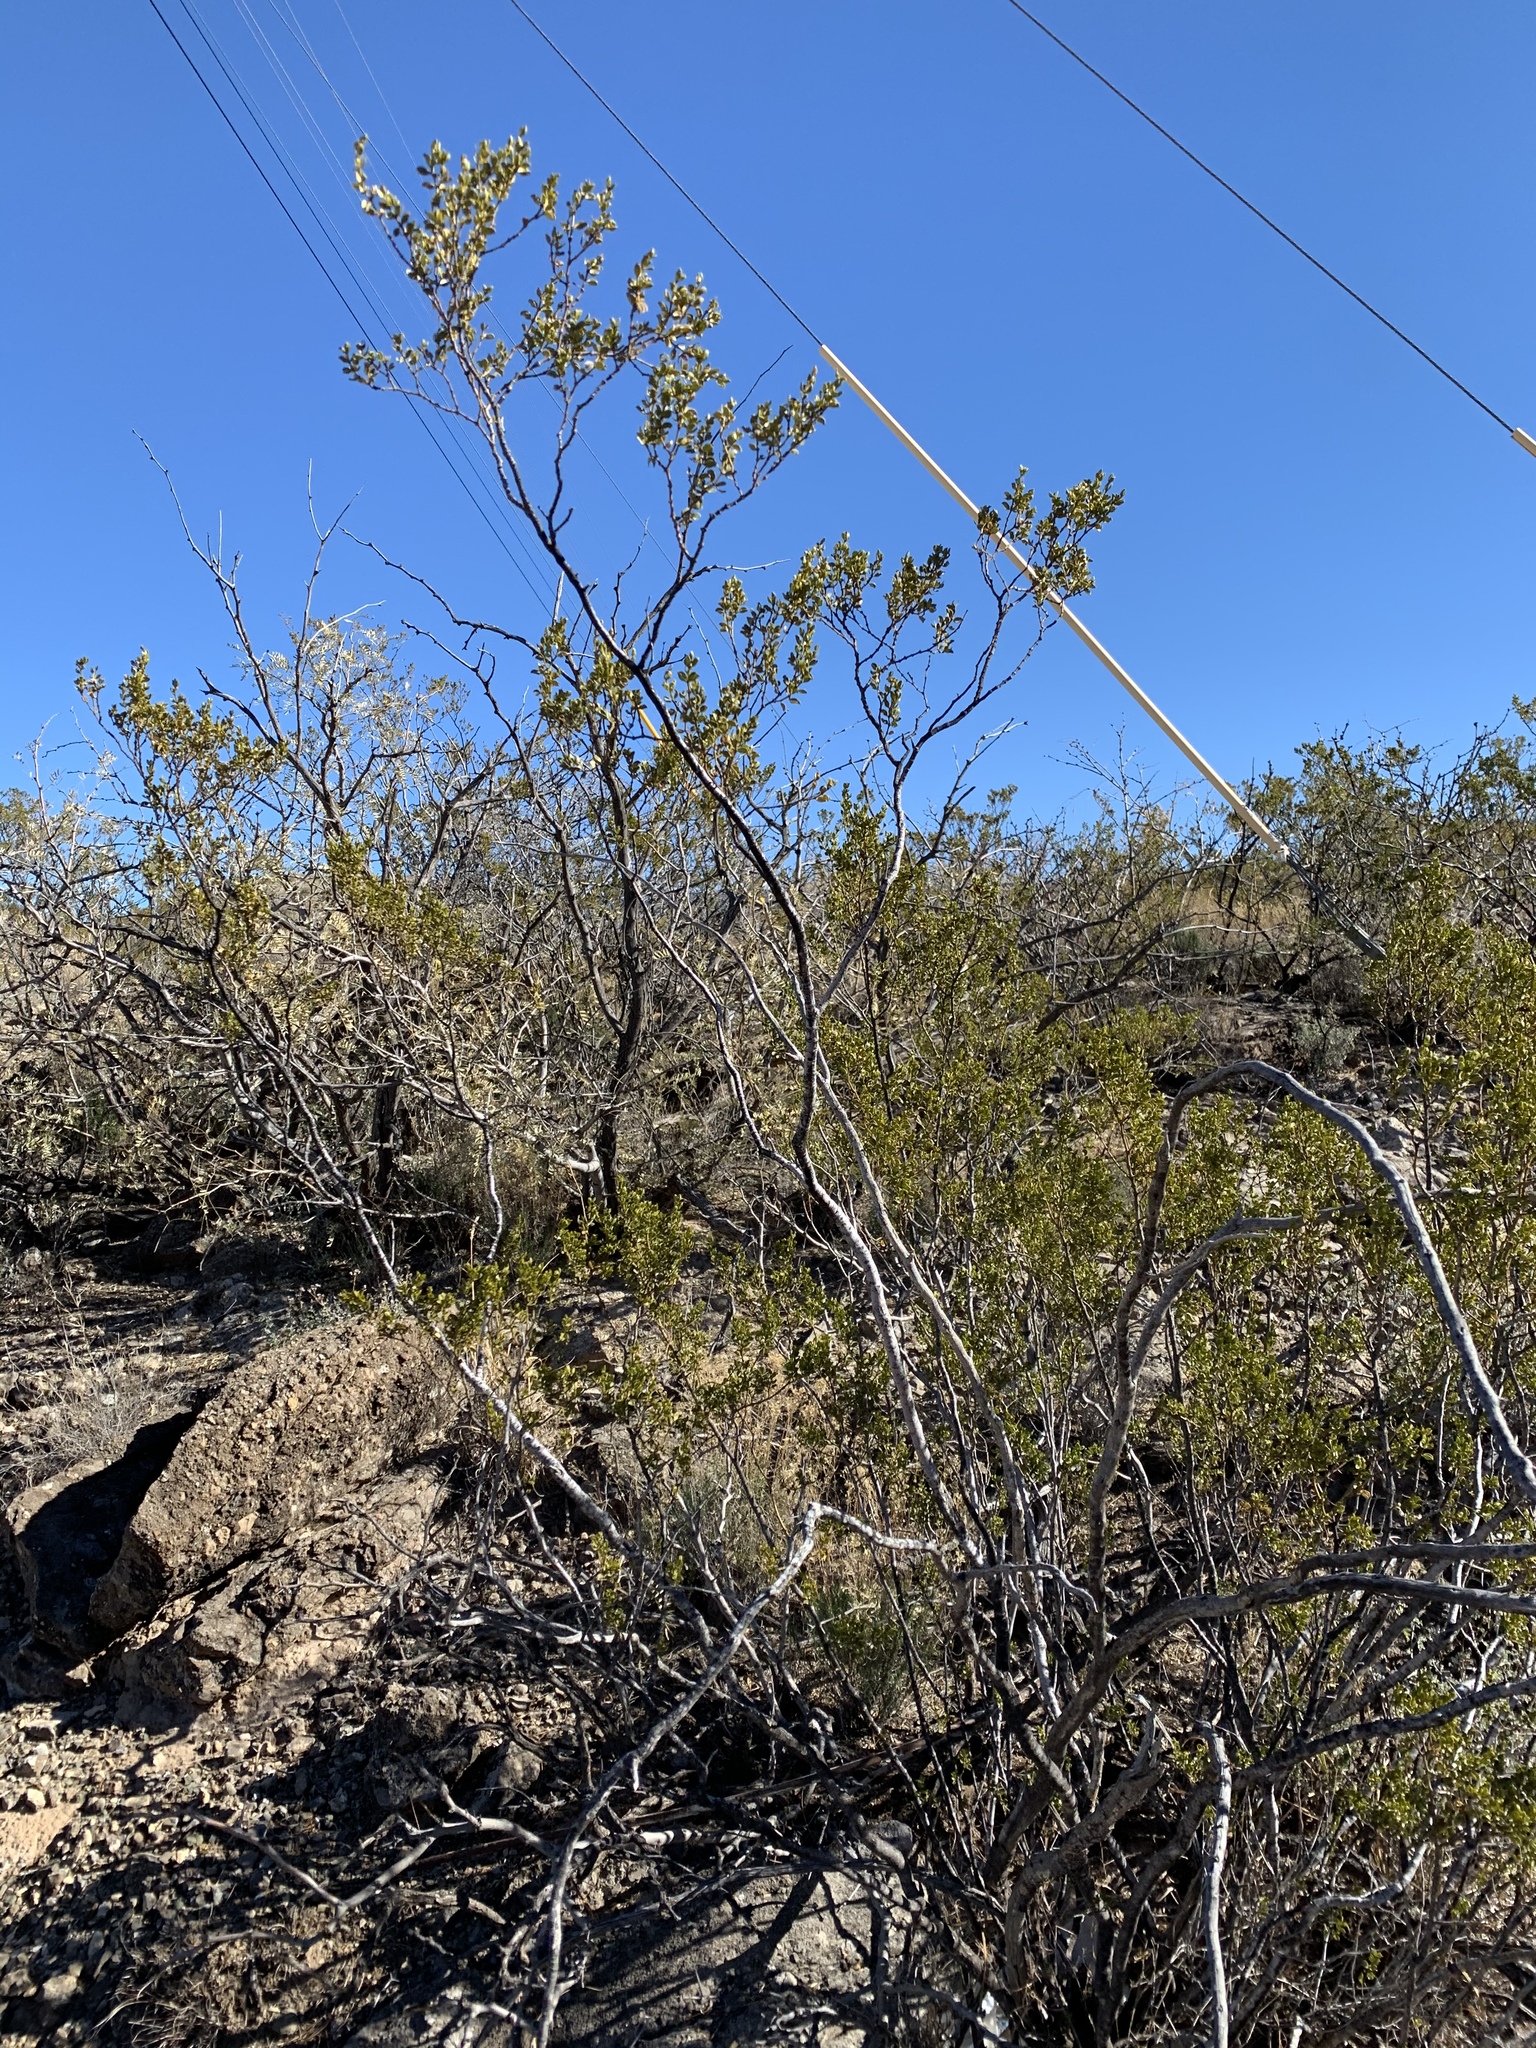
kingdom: Plantae
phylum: Tracheophyta
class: Magnoliopsida
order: Zygophyllales
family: Zygophyllaceae
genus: Larrea
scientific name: Larrea tridentata
